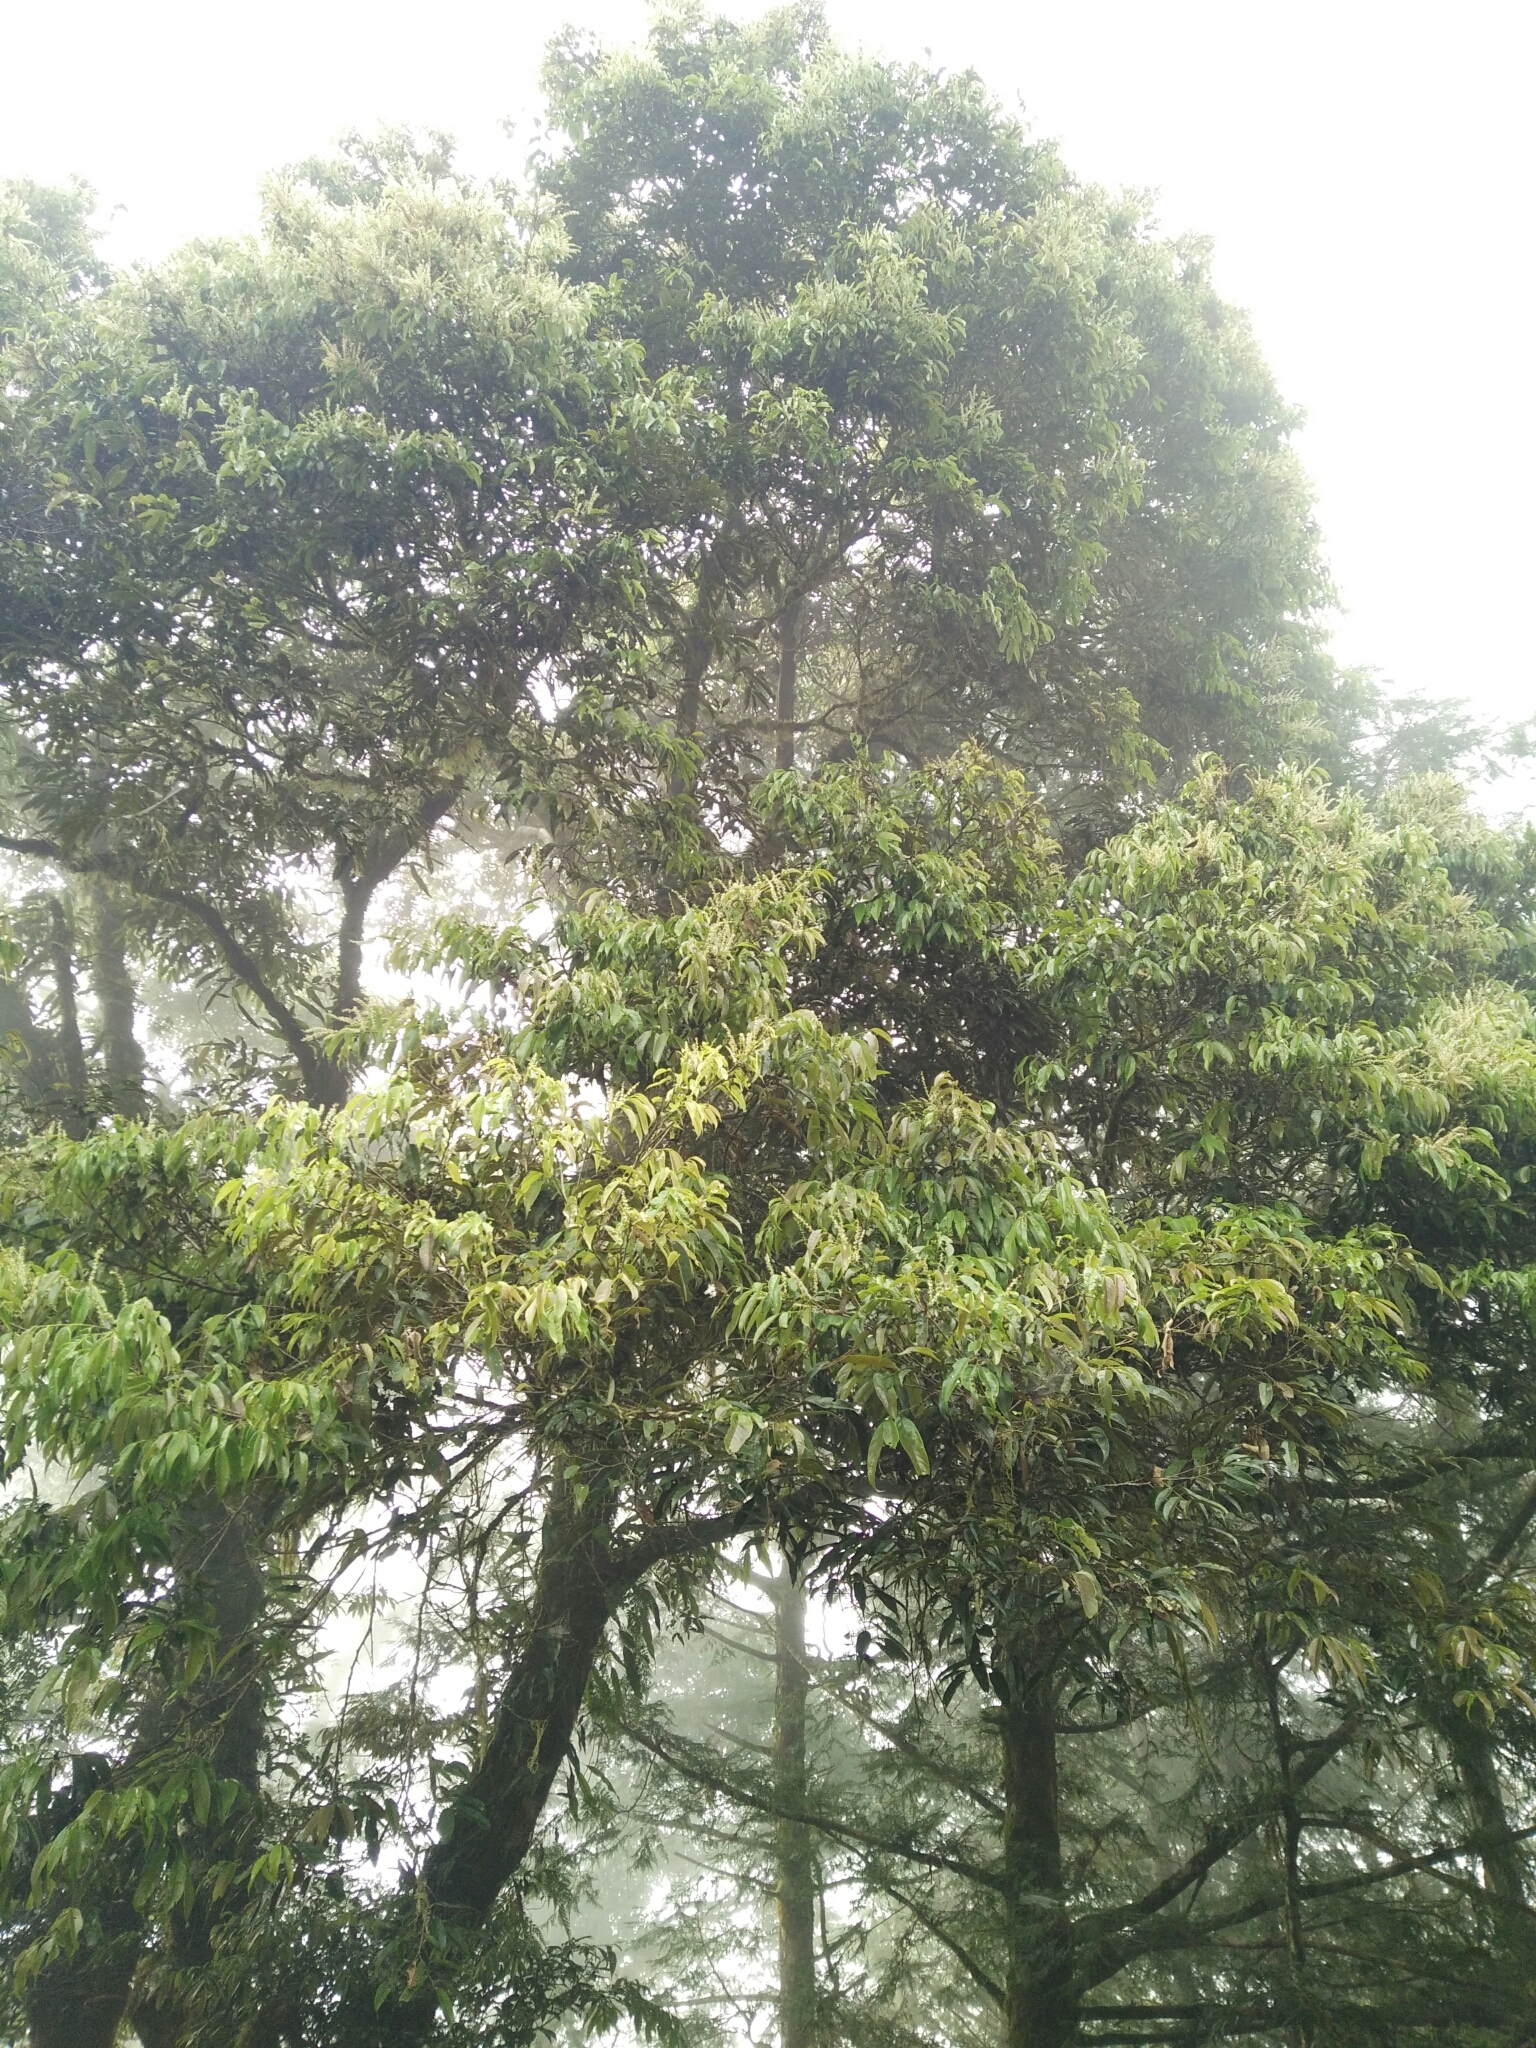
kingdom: Plantae
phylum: Tracheophyta
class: Magnoliopsida
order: Fagales
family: Fagaceae
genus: Castanopsis
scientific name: Castanopsis faberi
